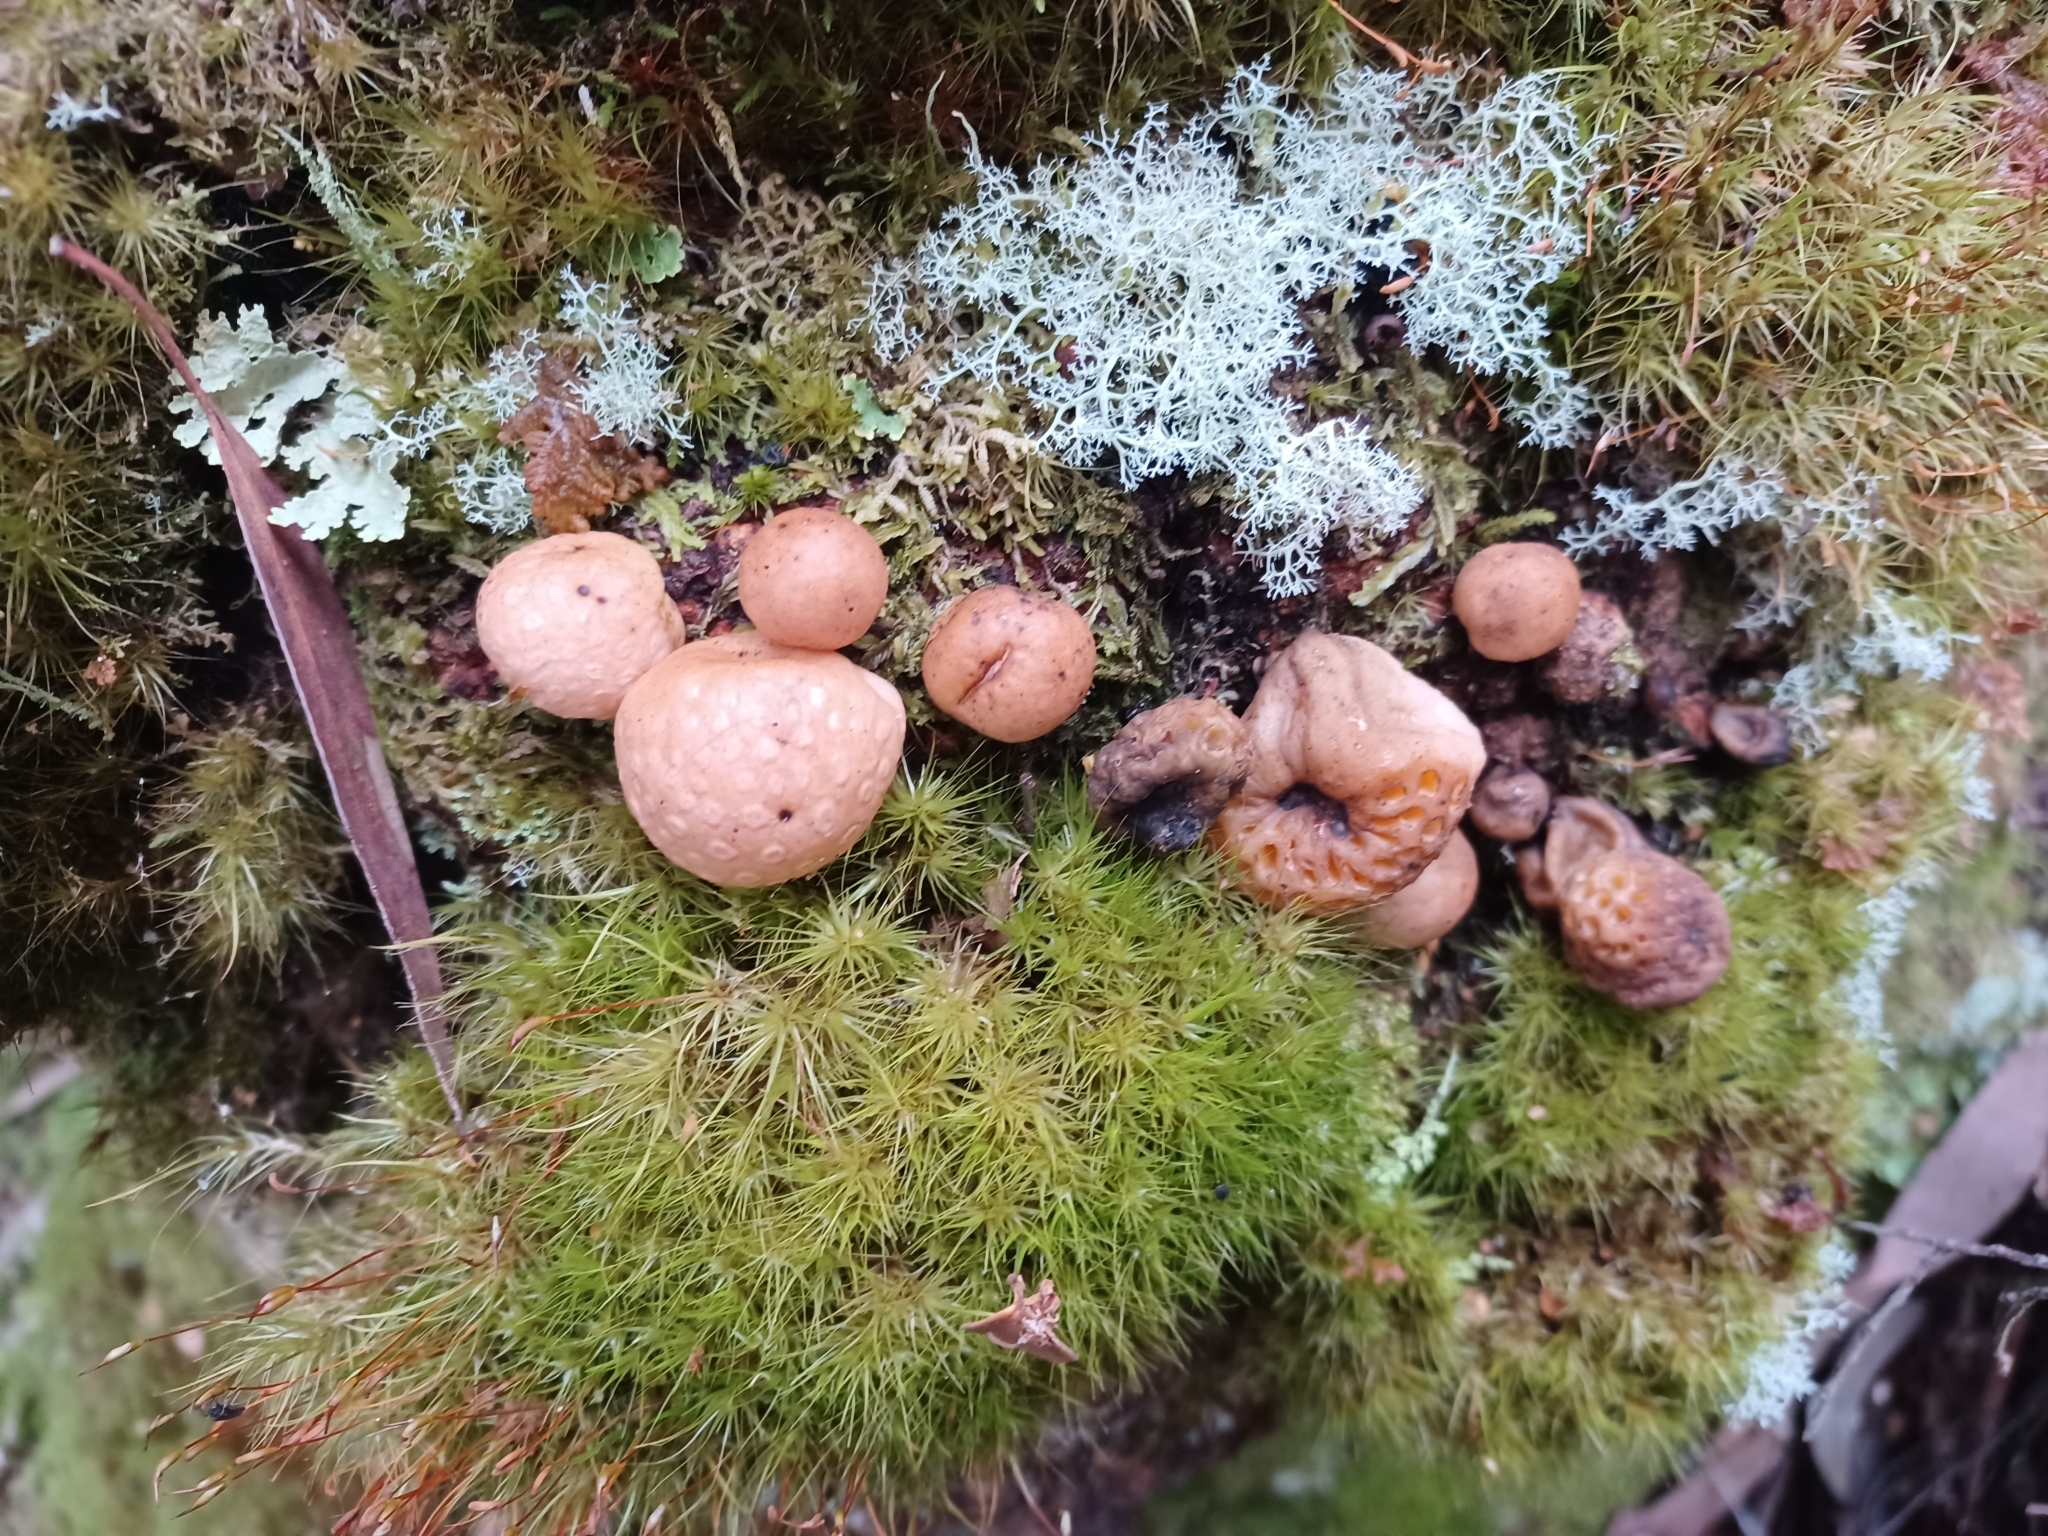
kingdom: Fungi
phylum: Ascomycota
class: Leotiomycetes
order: Cyttariales
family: Cyttariaceae
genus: Cyttaria
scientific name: Cyttaria gunnii
